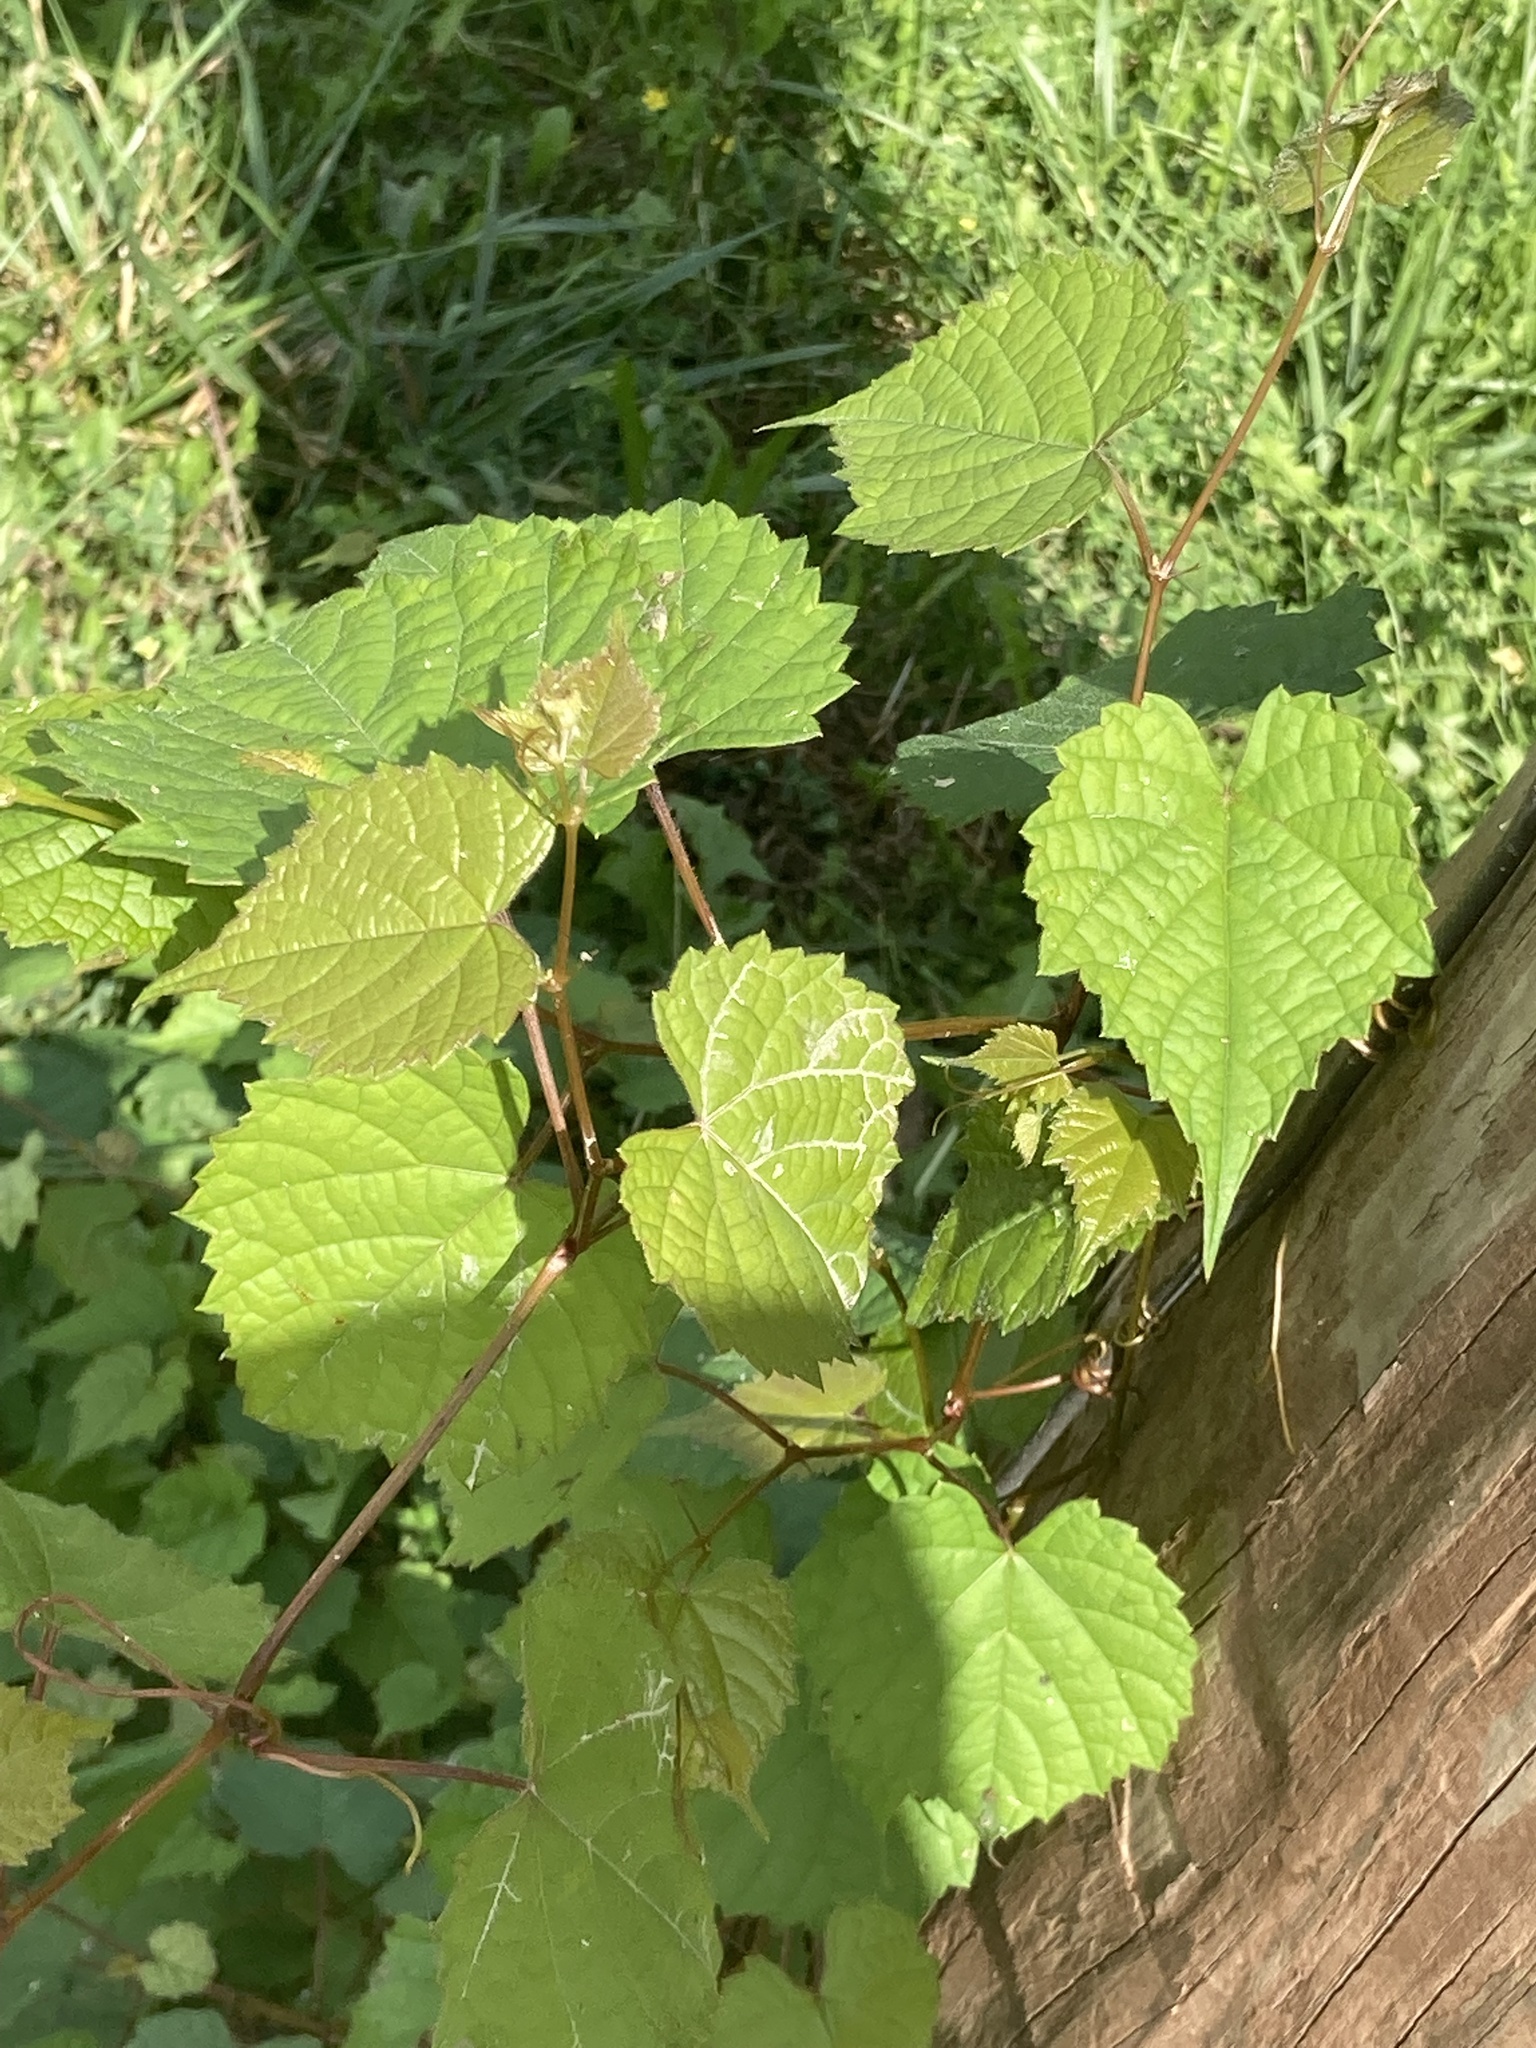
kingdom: Plantae
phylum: Tracheophyta
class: Magnoliopsida
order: Vitales
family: Vitaceae
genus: Vitis
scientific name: Vitis rotundifolia
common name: Muscadine grape
